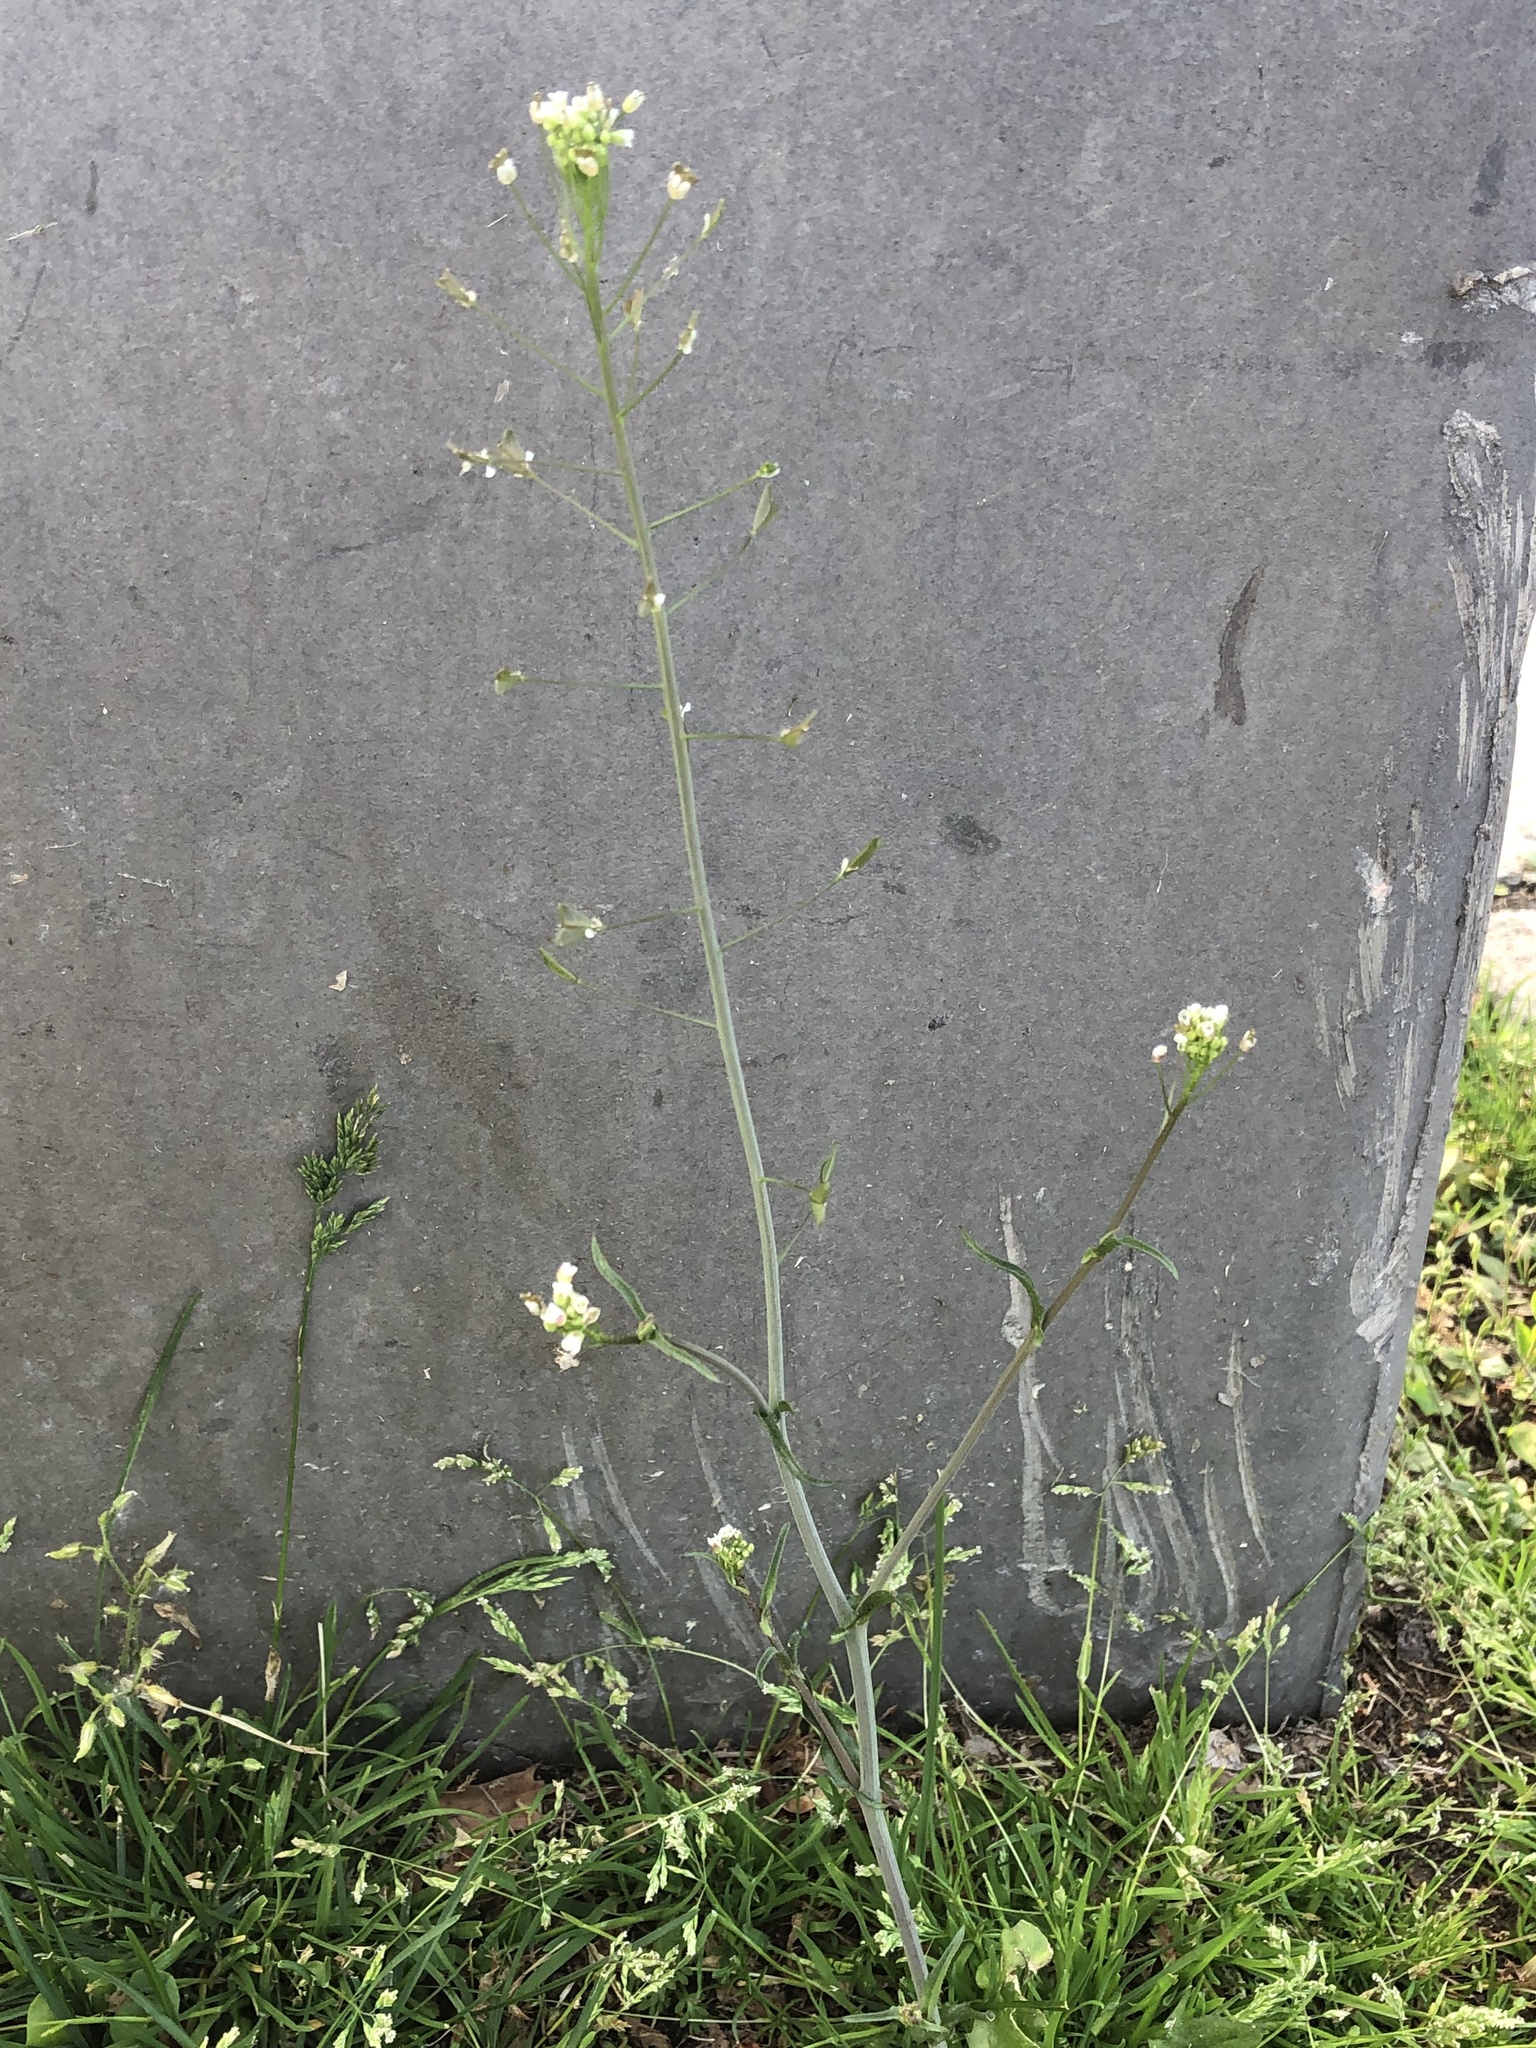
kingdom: Plantae
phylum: Tracheophyta
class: Magnoliopsida
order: Brassicales
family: Brassicaceae
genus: Arabidopsis
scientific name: Arabidopsis thaliana
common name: Thale cress
